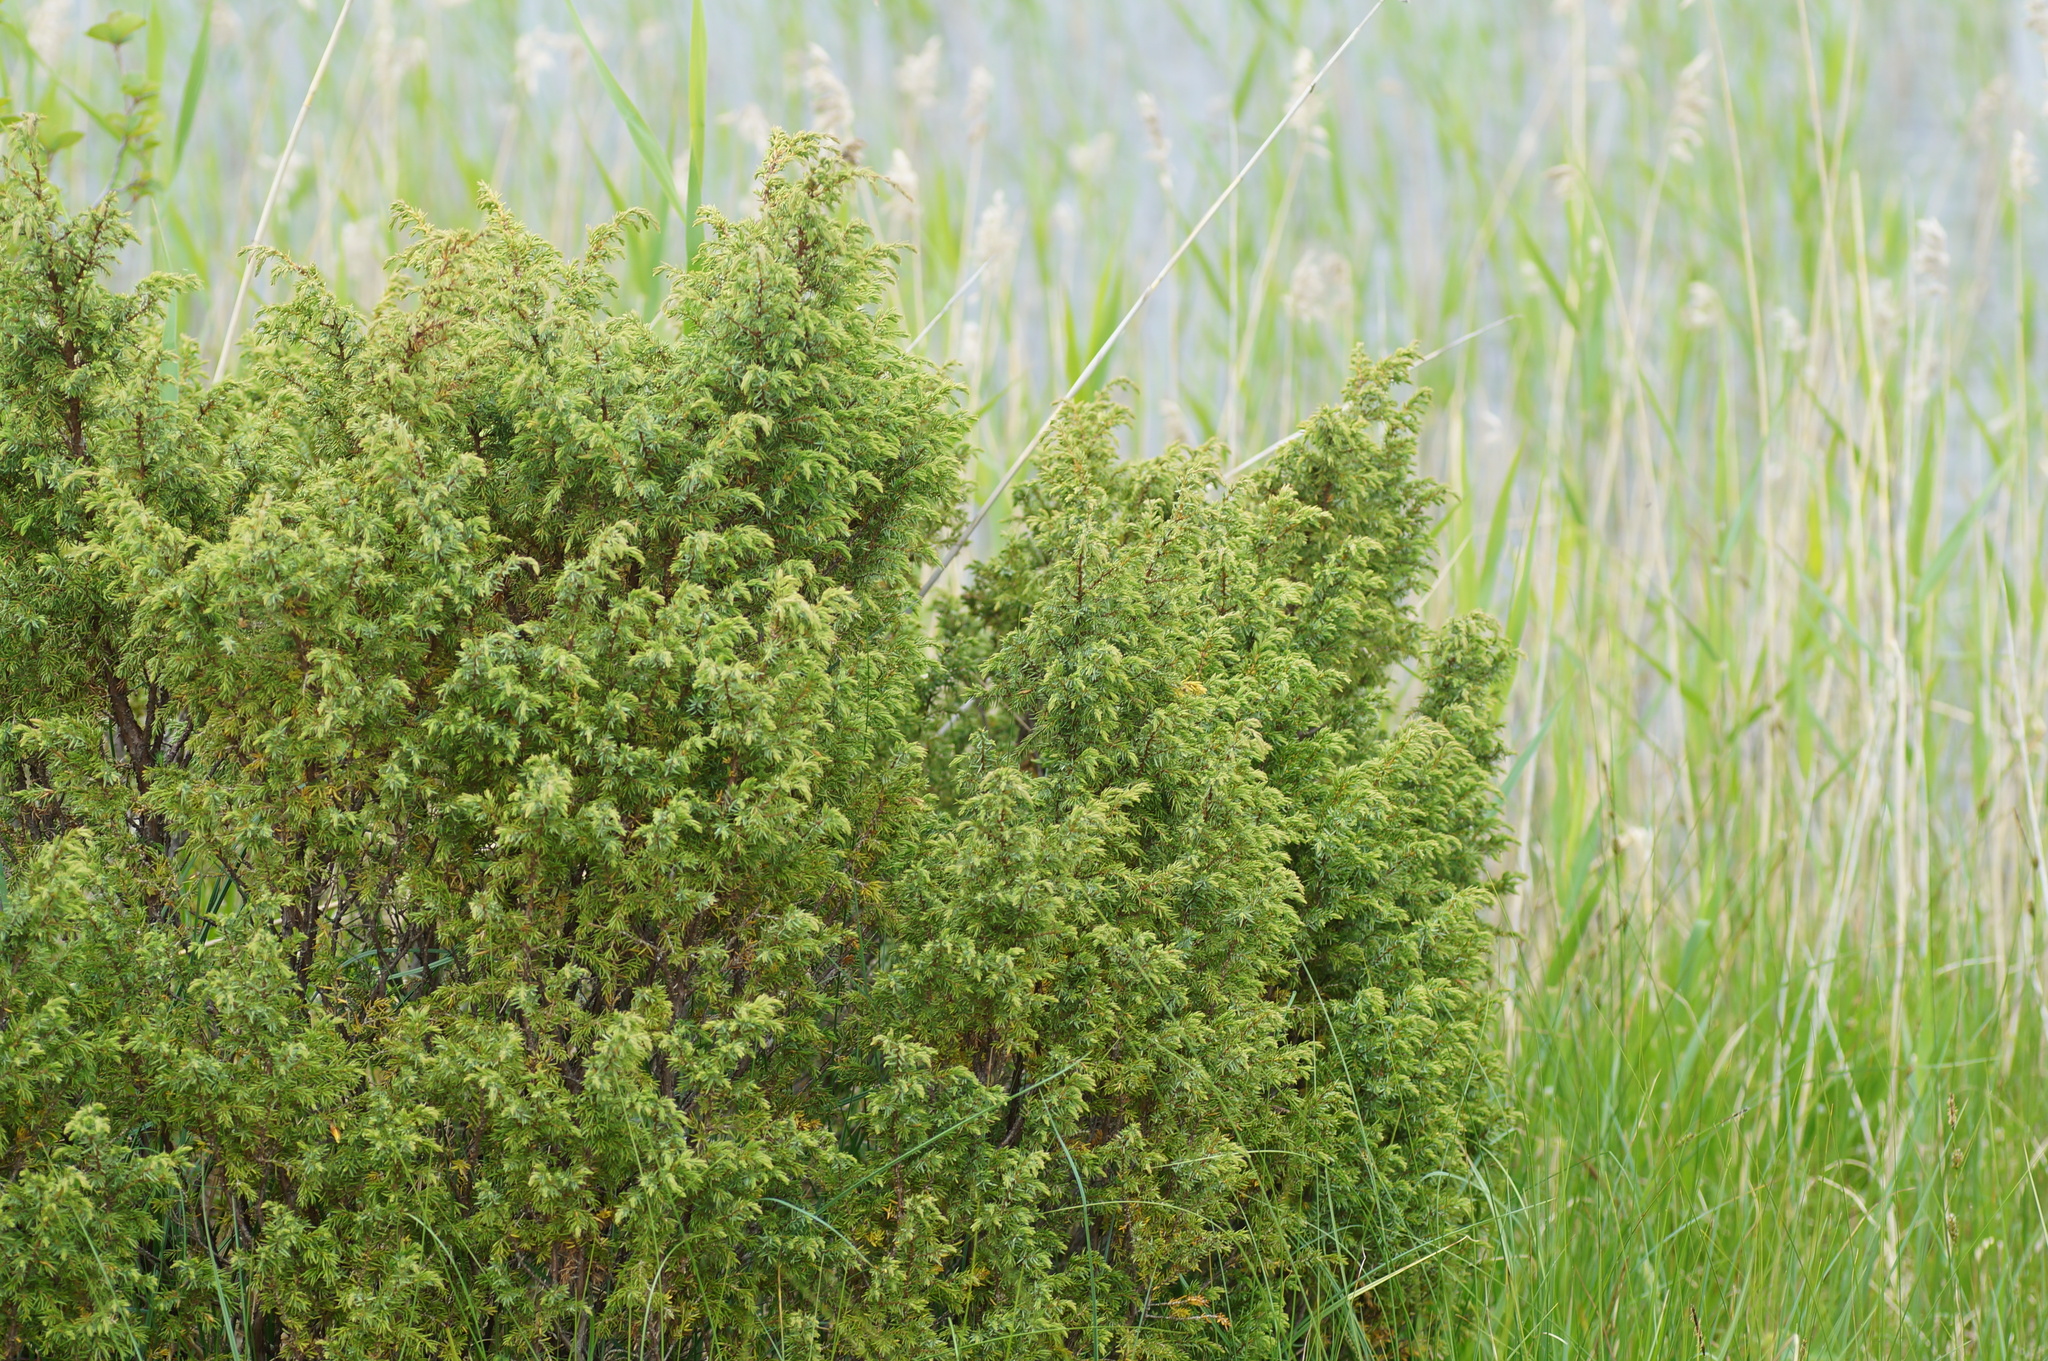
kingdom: Plantae
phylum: Tracheophyta
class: Pinopsida
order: Pinales
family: Cupressaceae
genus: Juniperus
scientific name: Juniperus communis
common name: Common juniper
